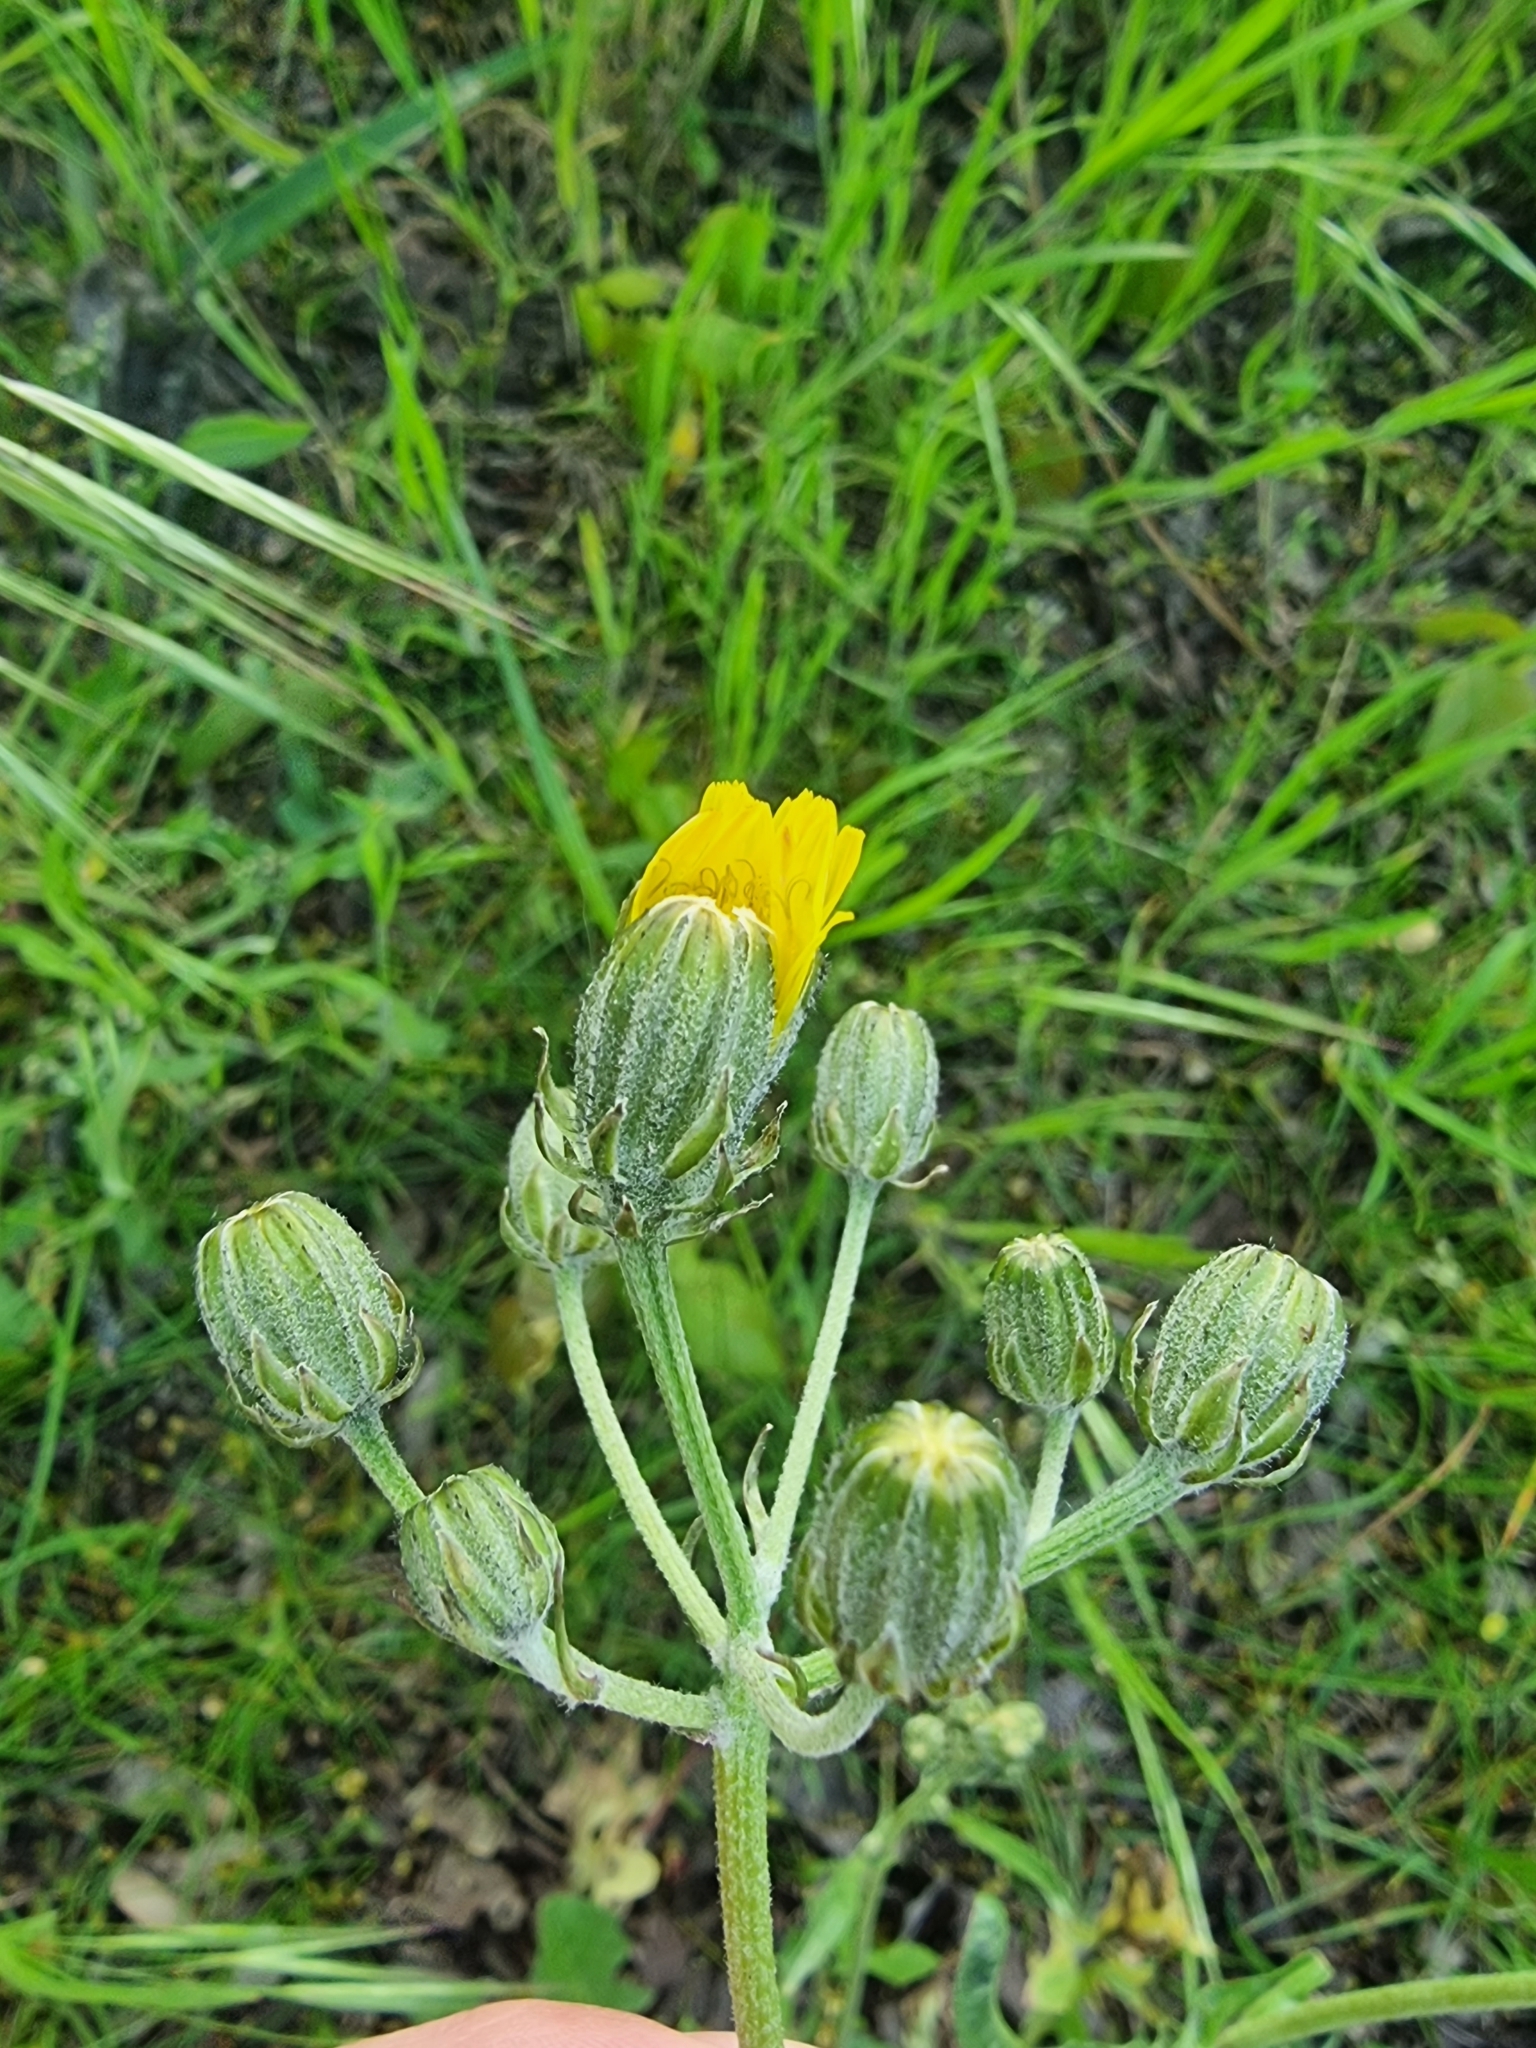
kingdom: Plantae
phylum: Tracheophyta
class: Magnoliopsida
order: Asterales
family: Asteraceae
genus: Crepis
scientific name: Crepis vesicaria
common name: Beaked hawksbeard
